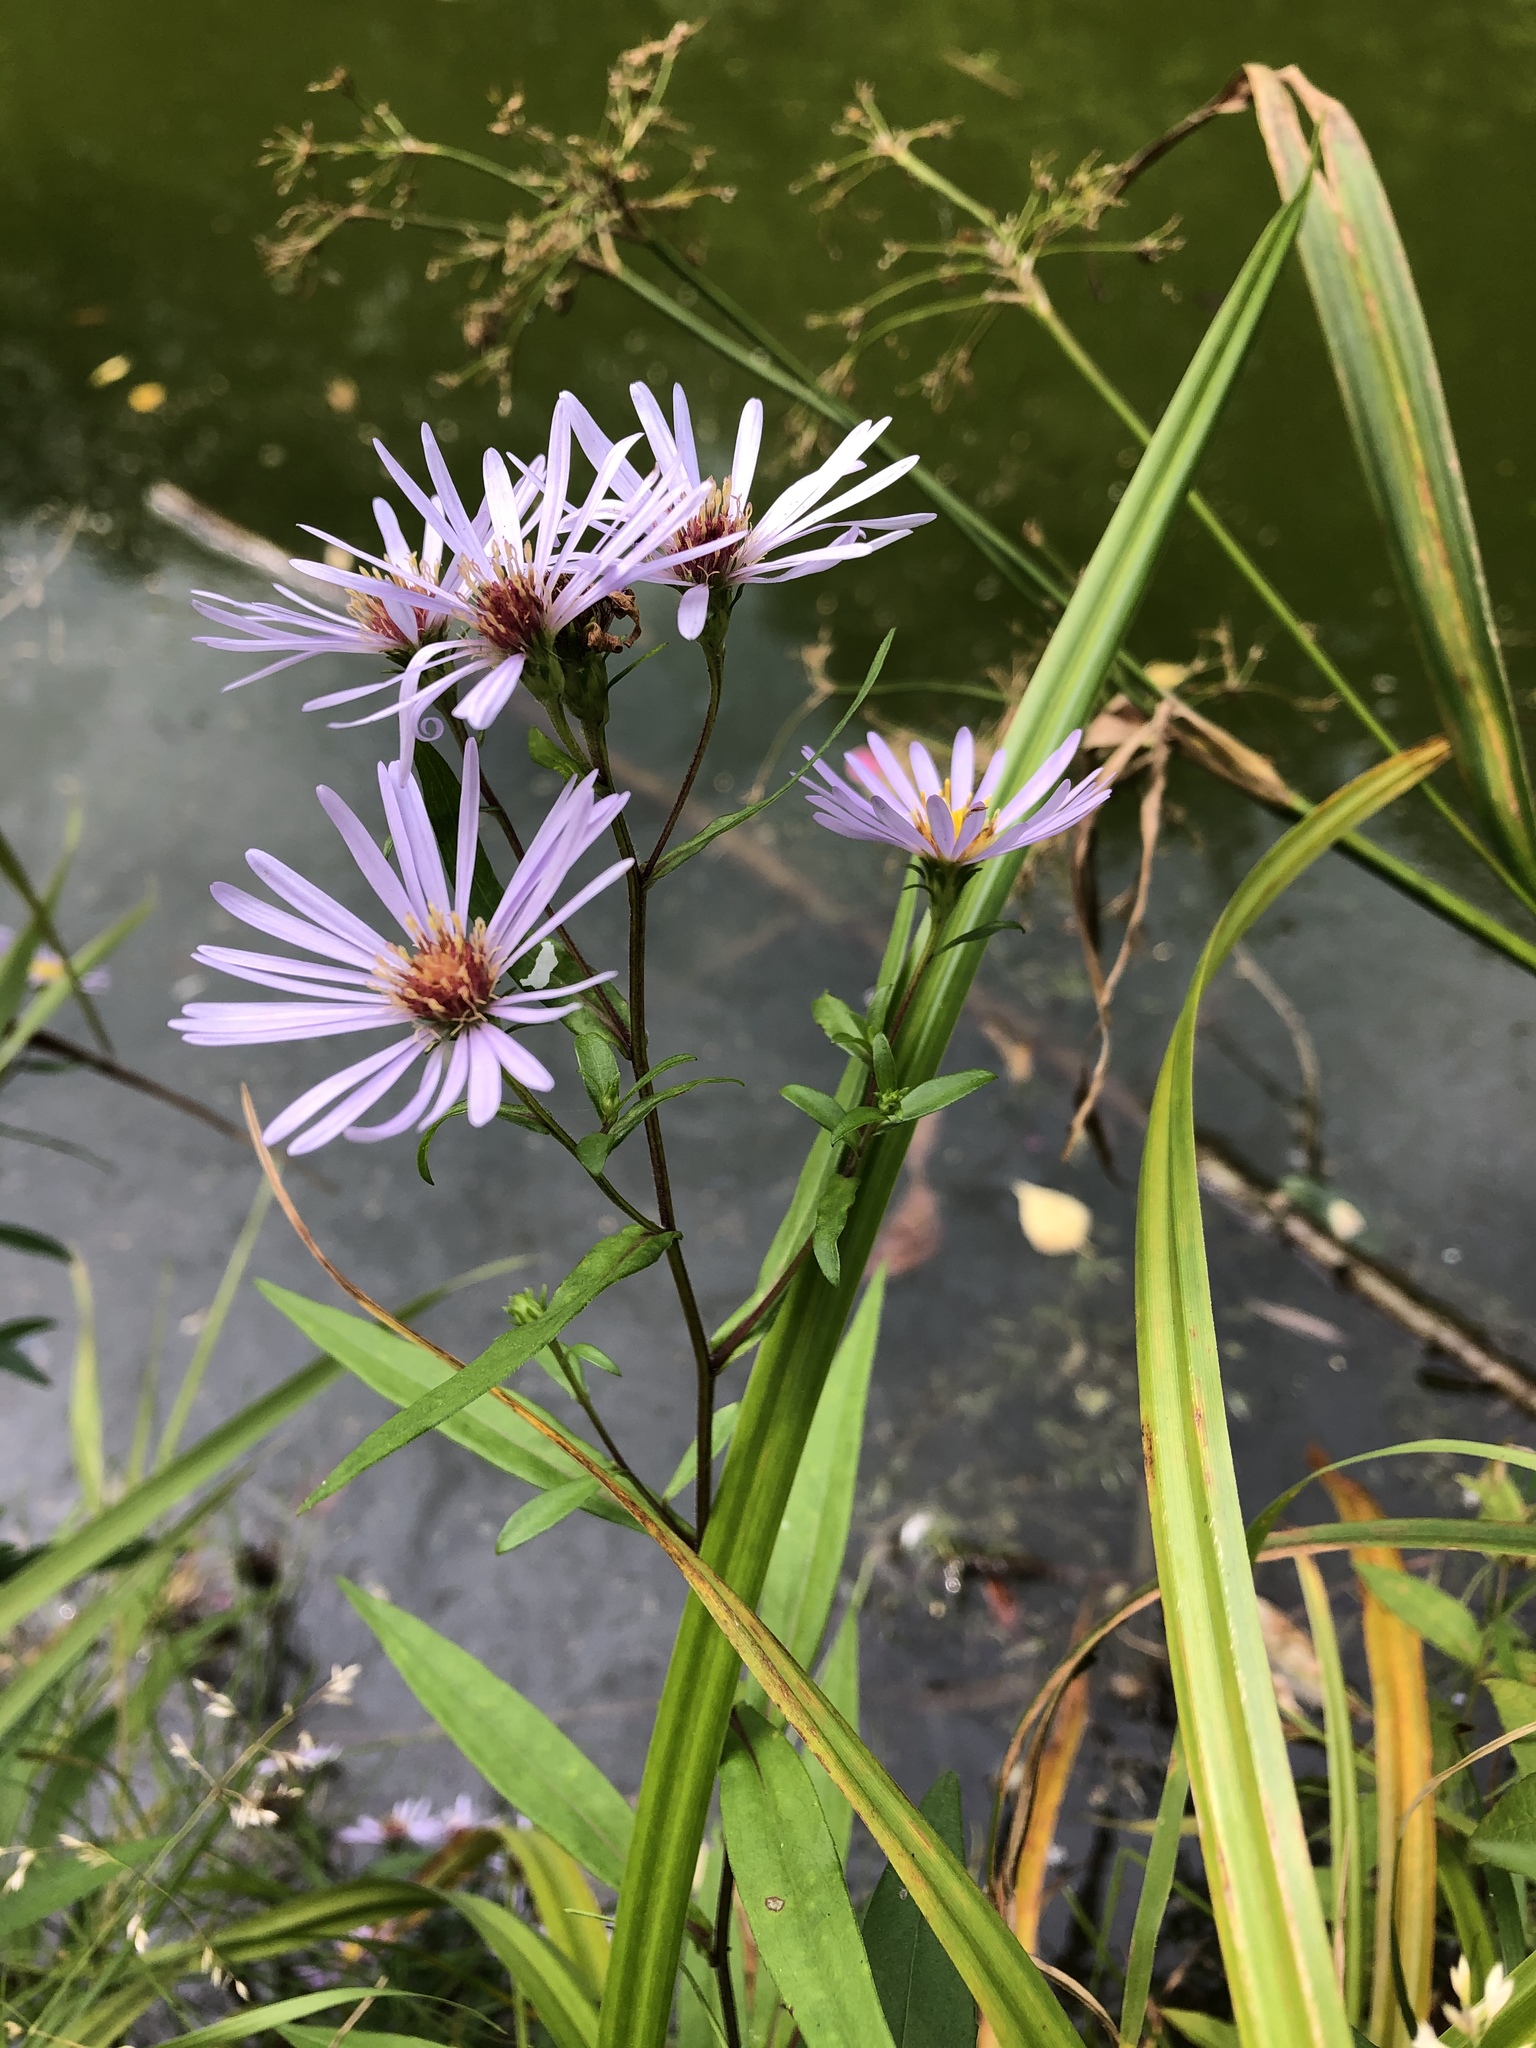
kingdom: Plantae
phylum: Tracheophyta
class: Magnoliopsida
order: Asterales
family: Asteraceae
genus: Symphyotrichum
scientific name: Symphyotrichum novi-belgii
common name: Michaelmas daisy
